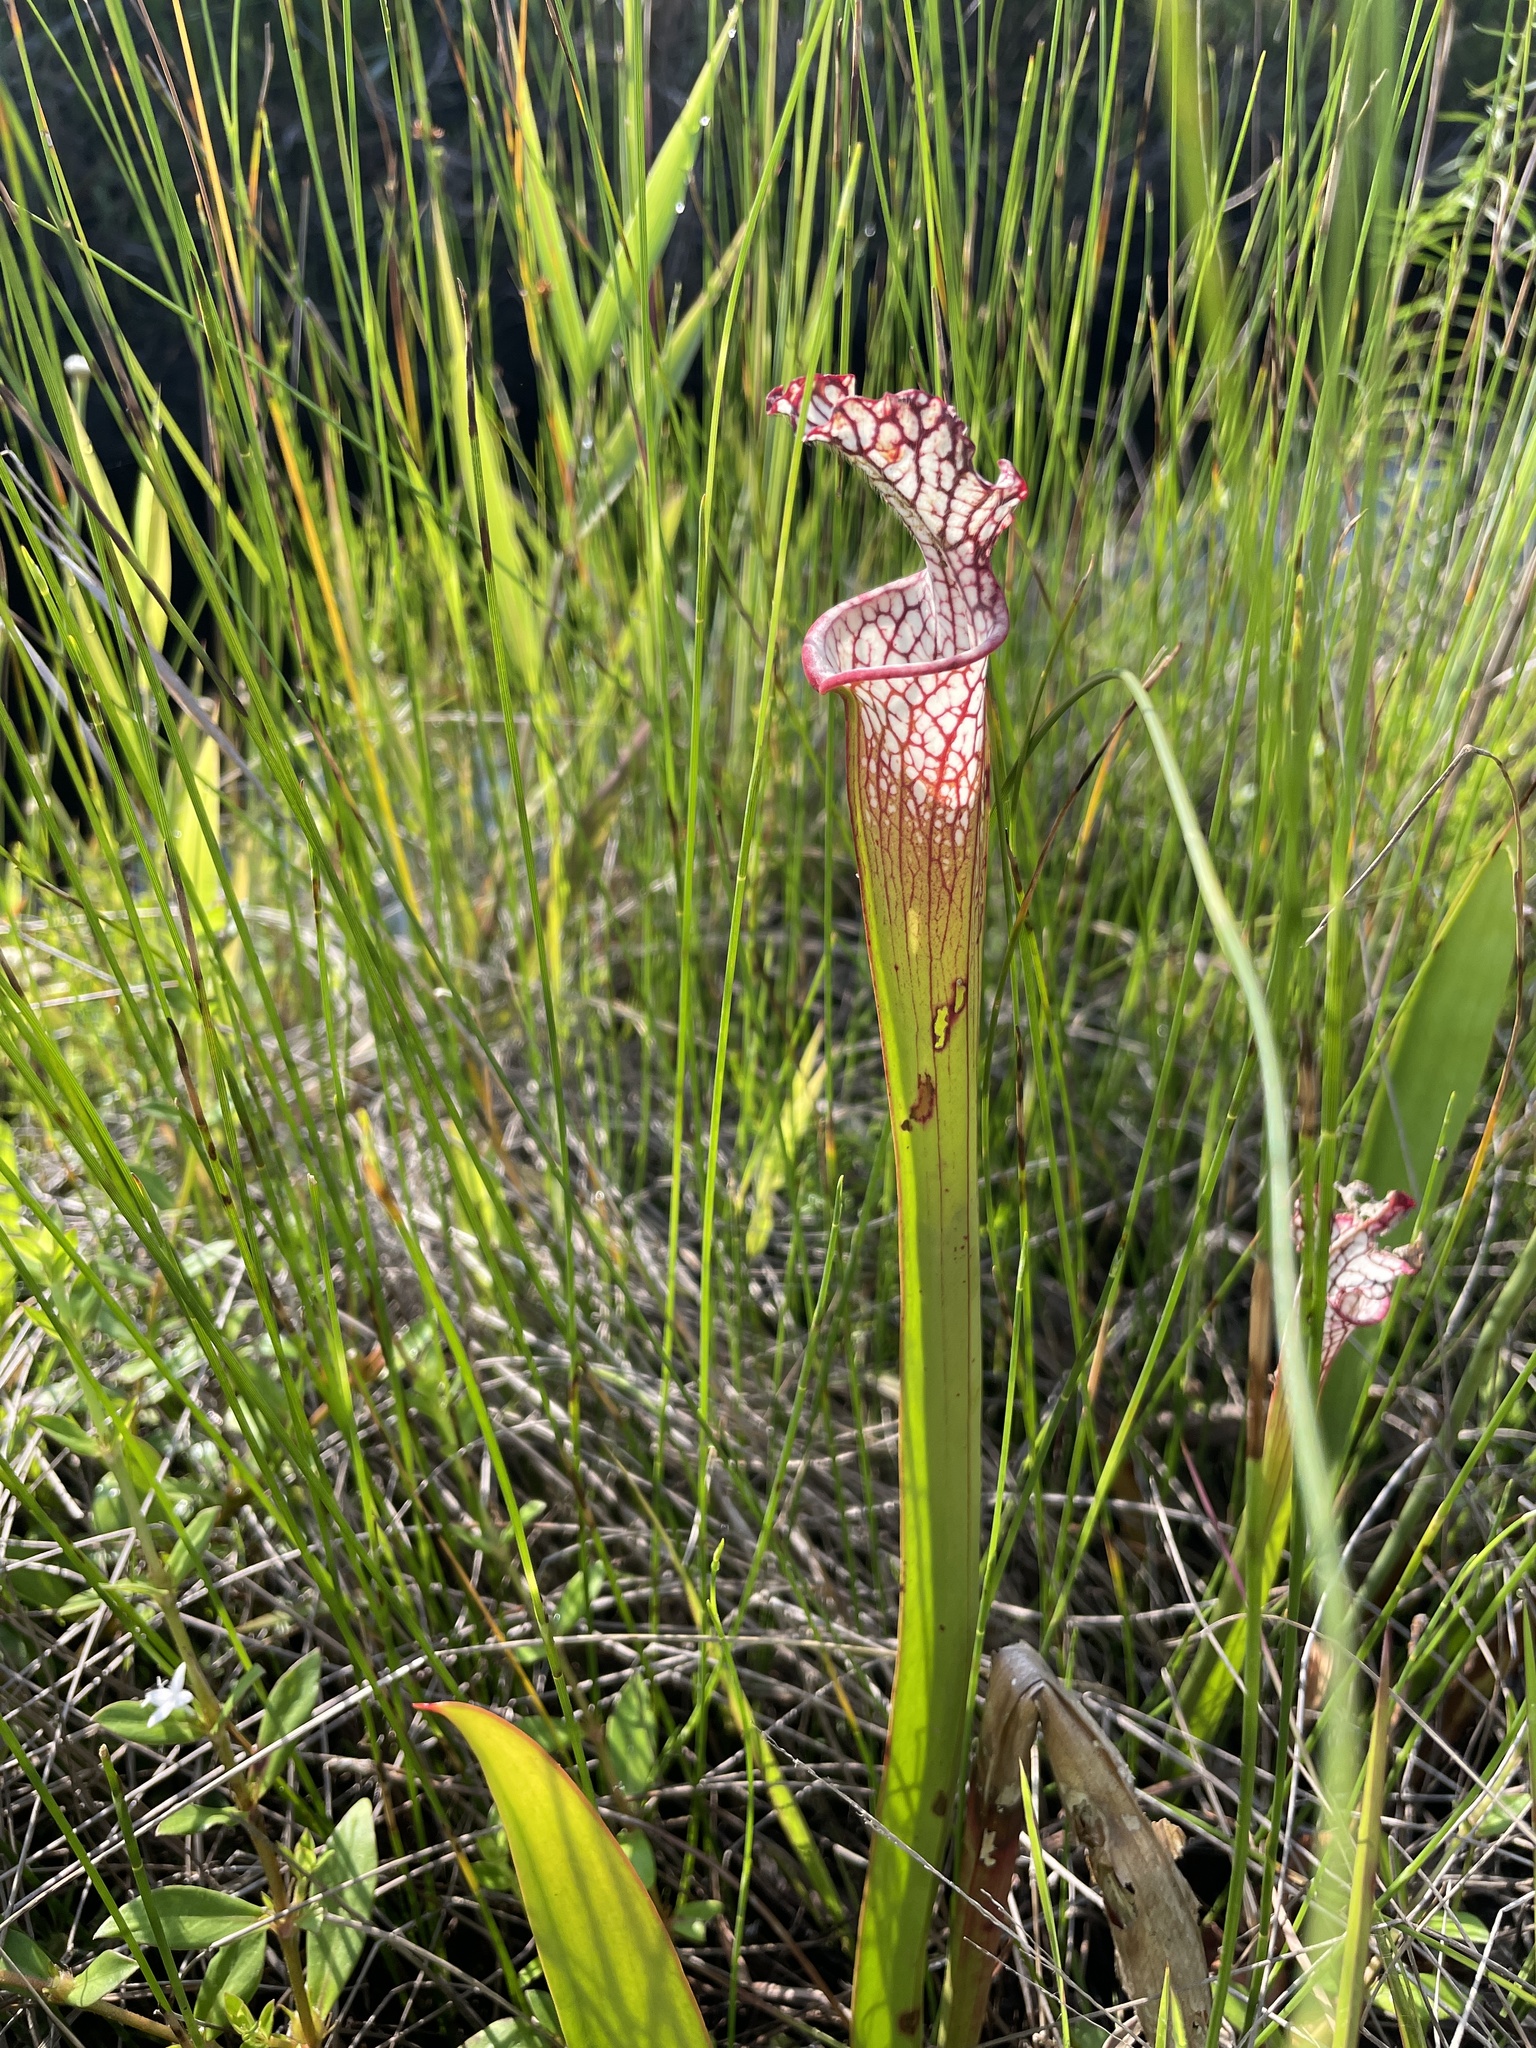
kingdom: Plantae
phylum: Tracheophyta
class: Magnoliopsida
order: Ericales
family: Sarraceniaceae
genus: Sarracenia
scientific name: Sarracenia leucophylla
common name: Purple trumpetleaf
